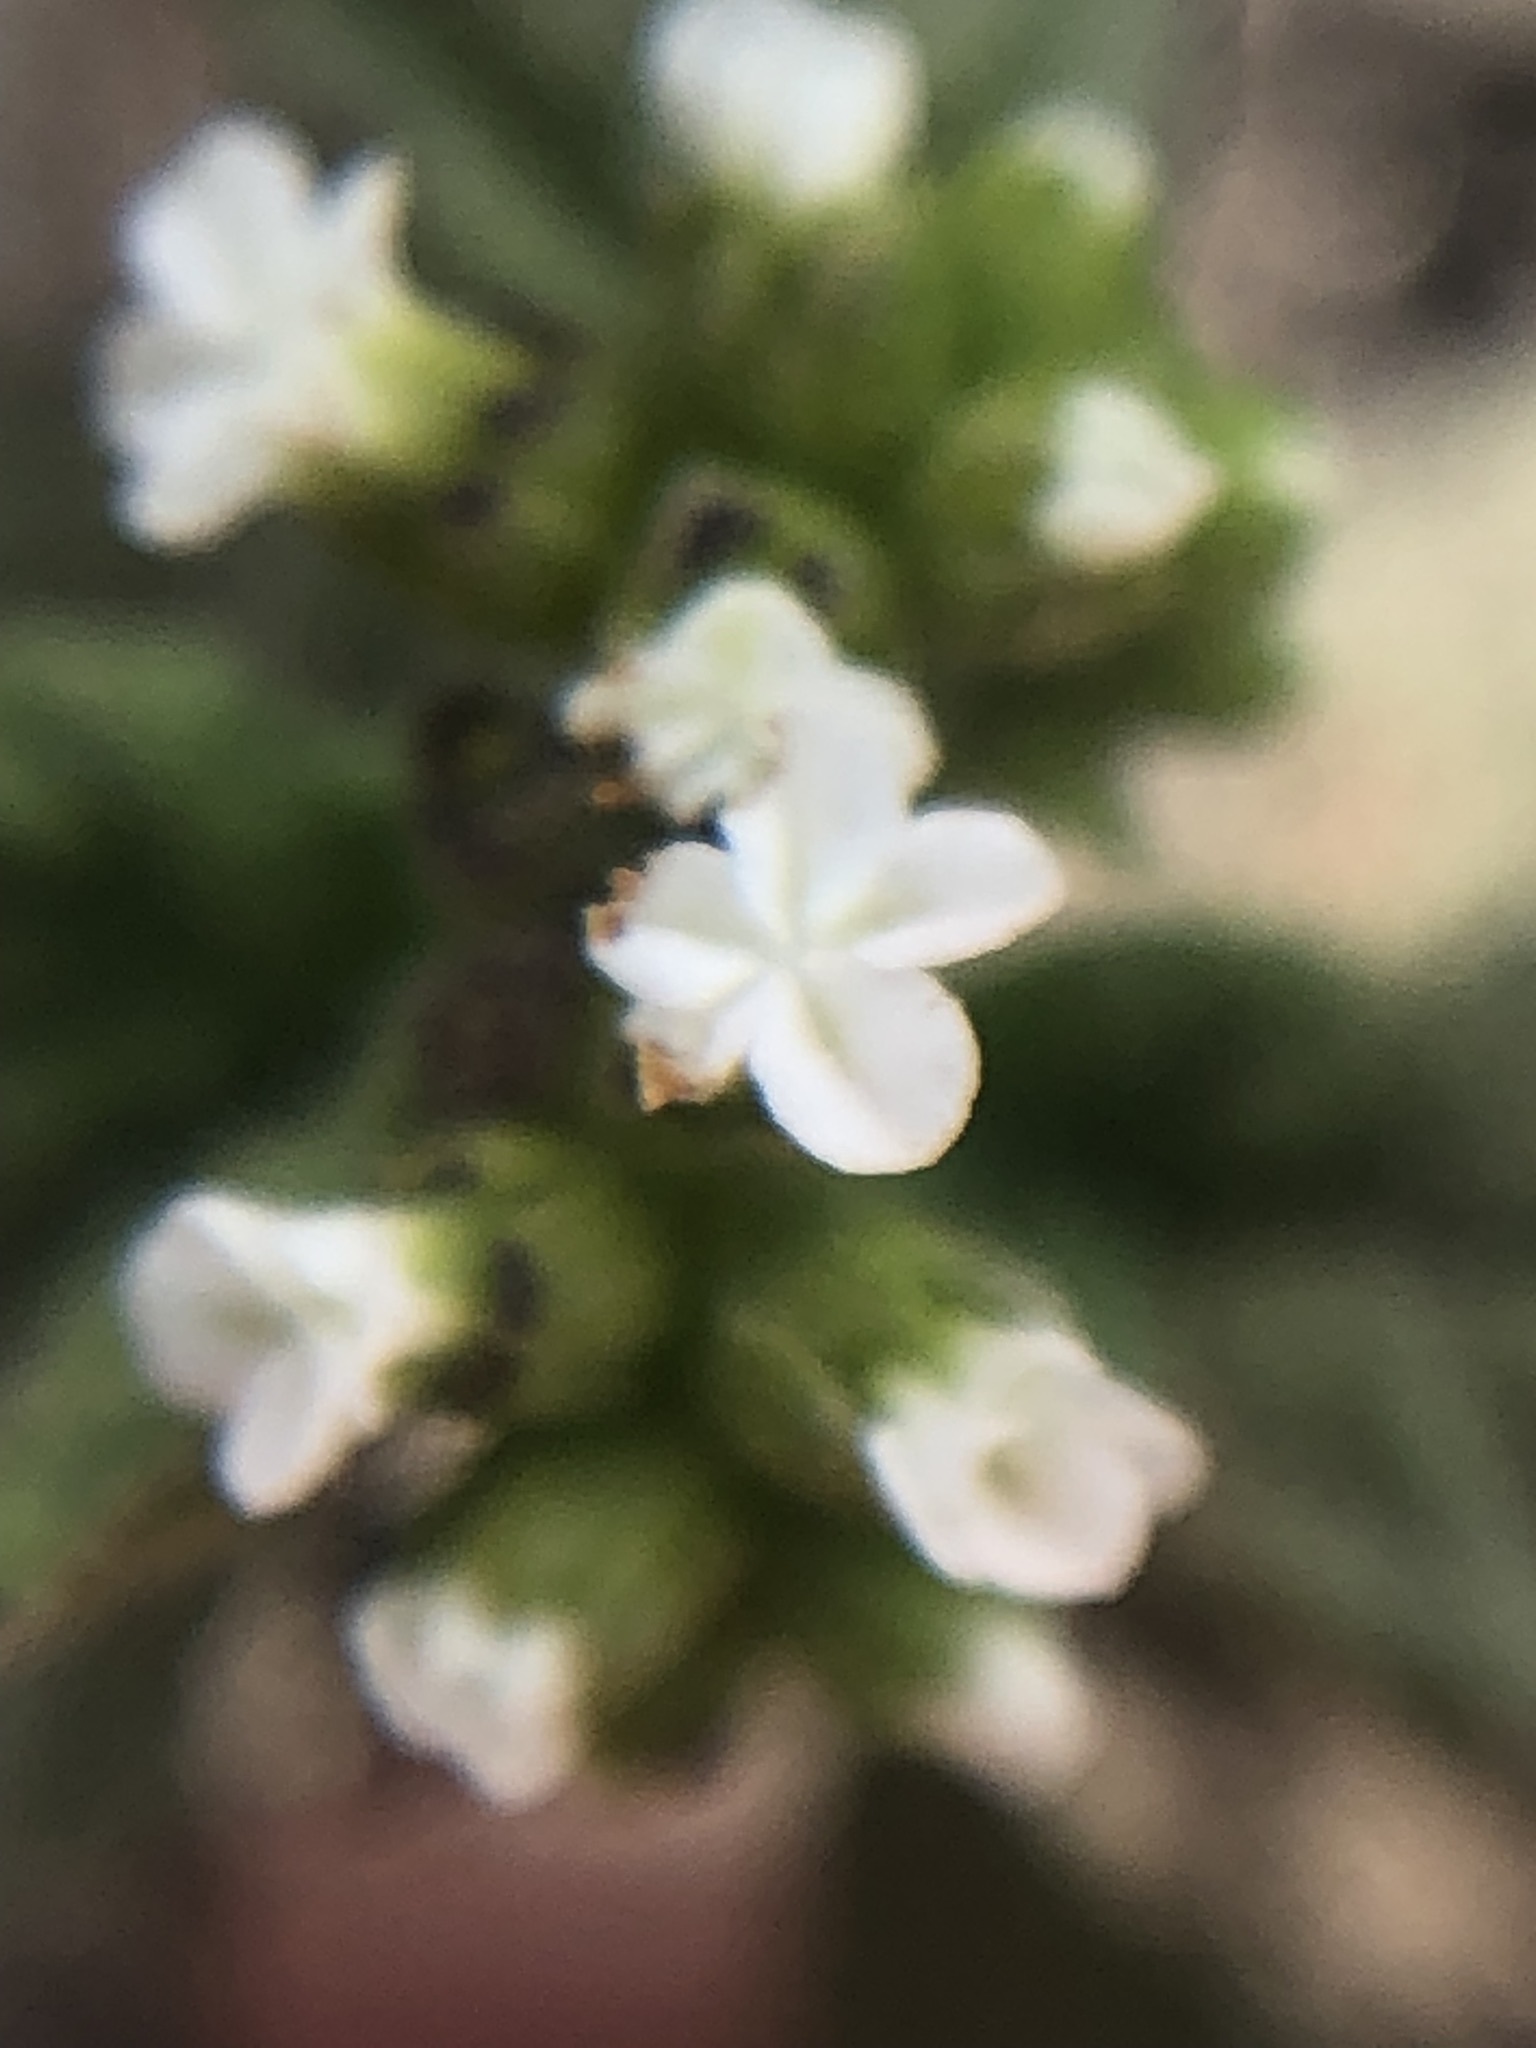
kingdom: Plantae
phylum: Tracheophyta
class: Magnoliopsida
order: Boraginales
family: Heliotropiaceae
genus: Heliotropium
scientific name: Heliotropium angiospermum
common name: Eye bright
